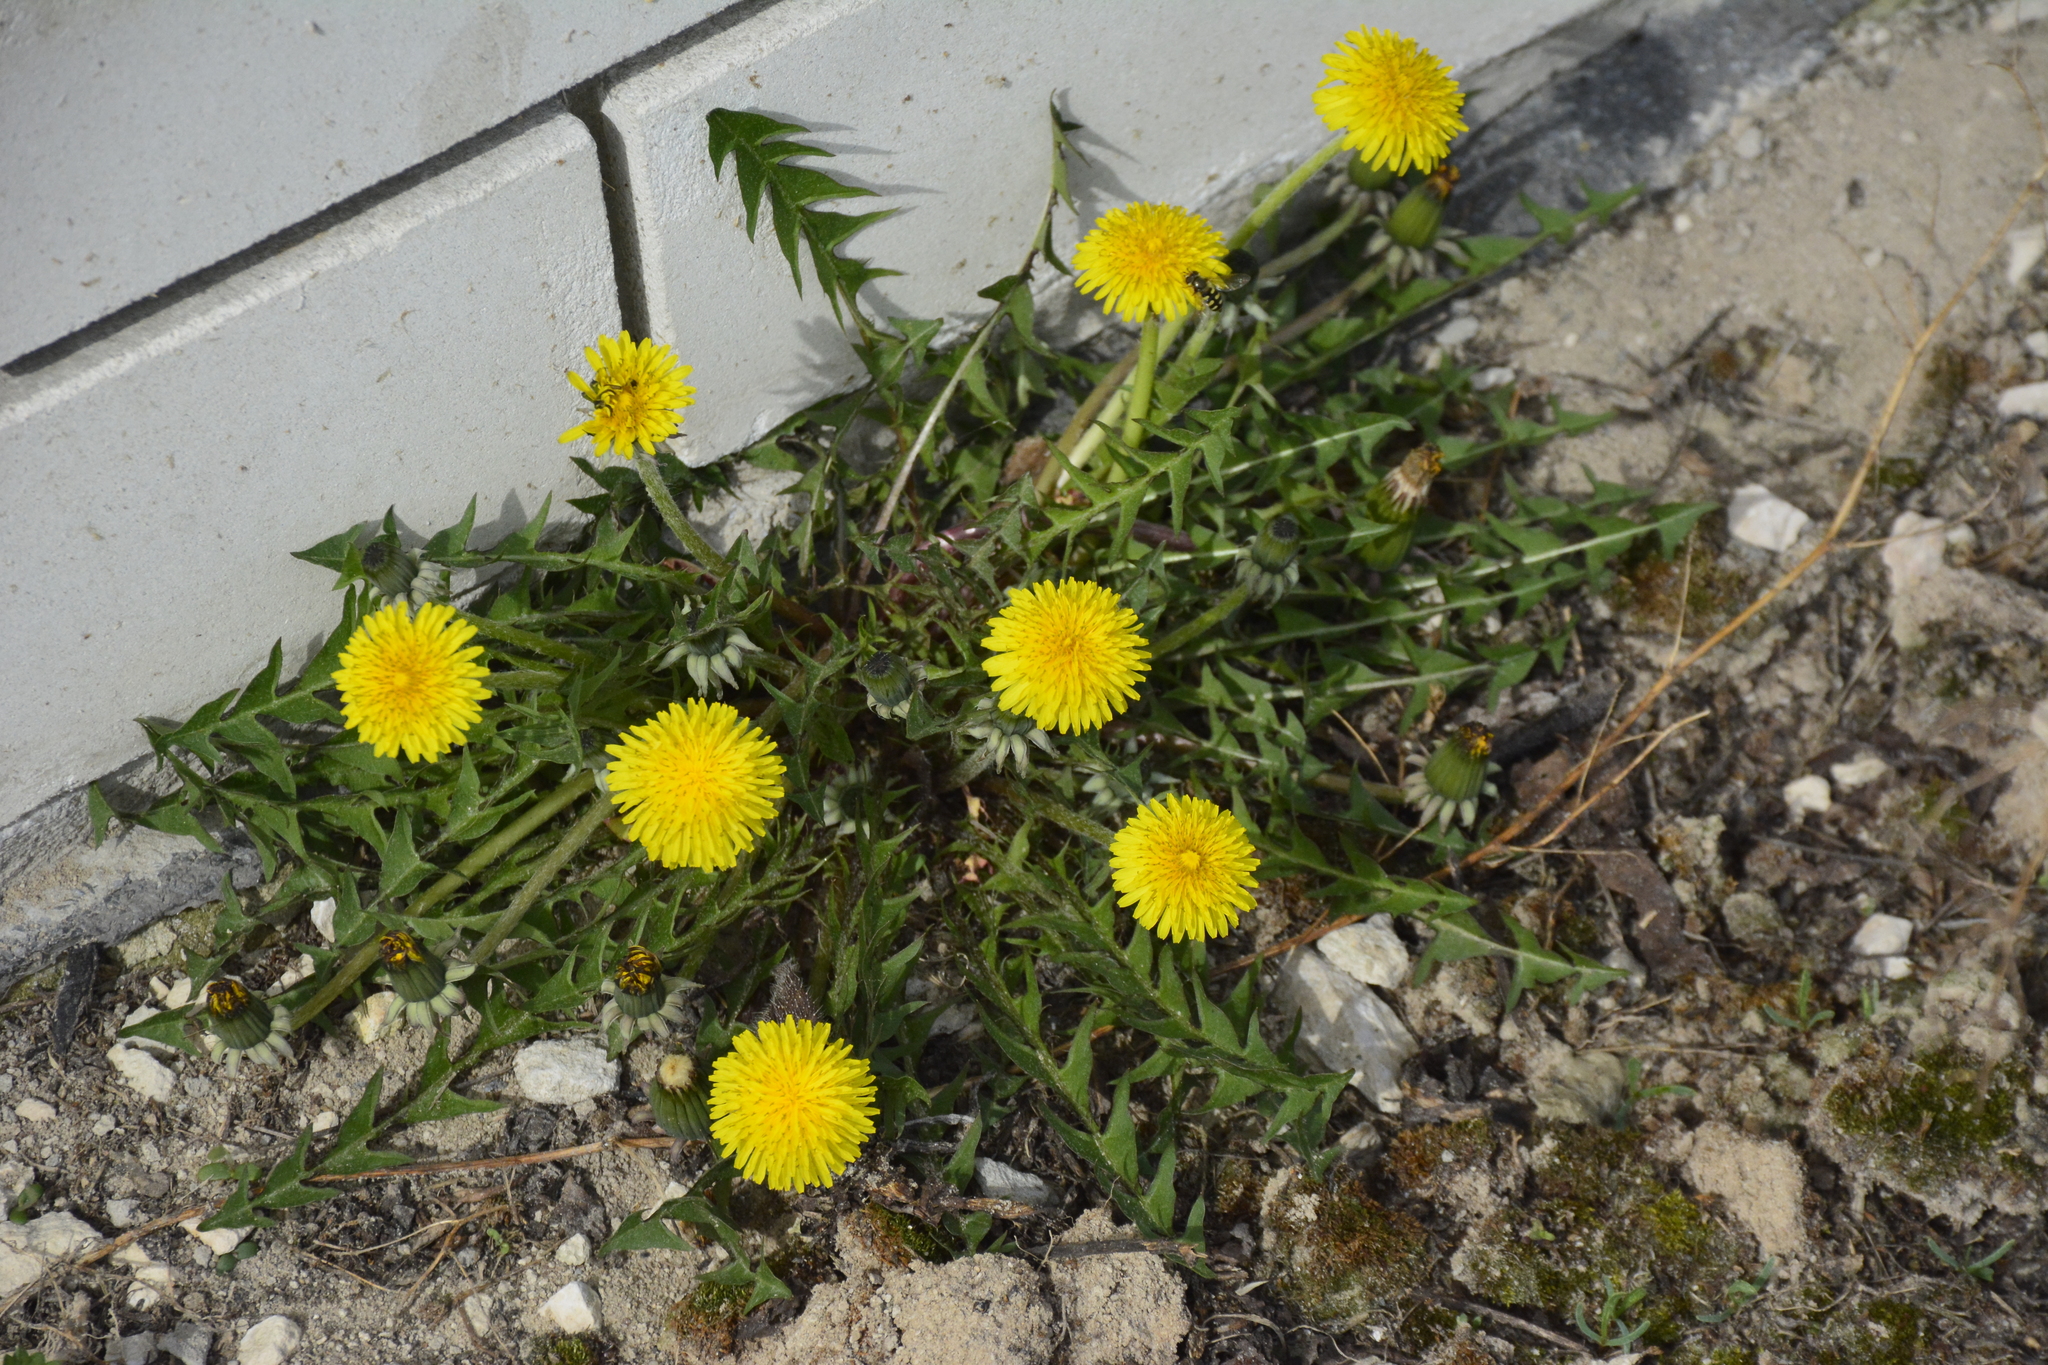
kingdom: Plantae
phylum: Tracheophyta
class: Magnoliopsida
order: Asterales
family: Asteraceae
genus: Taraxacum
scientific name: Taraxacum officinale
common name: Common dandelion
